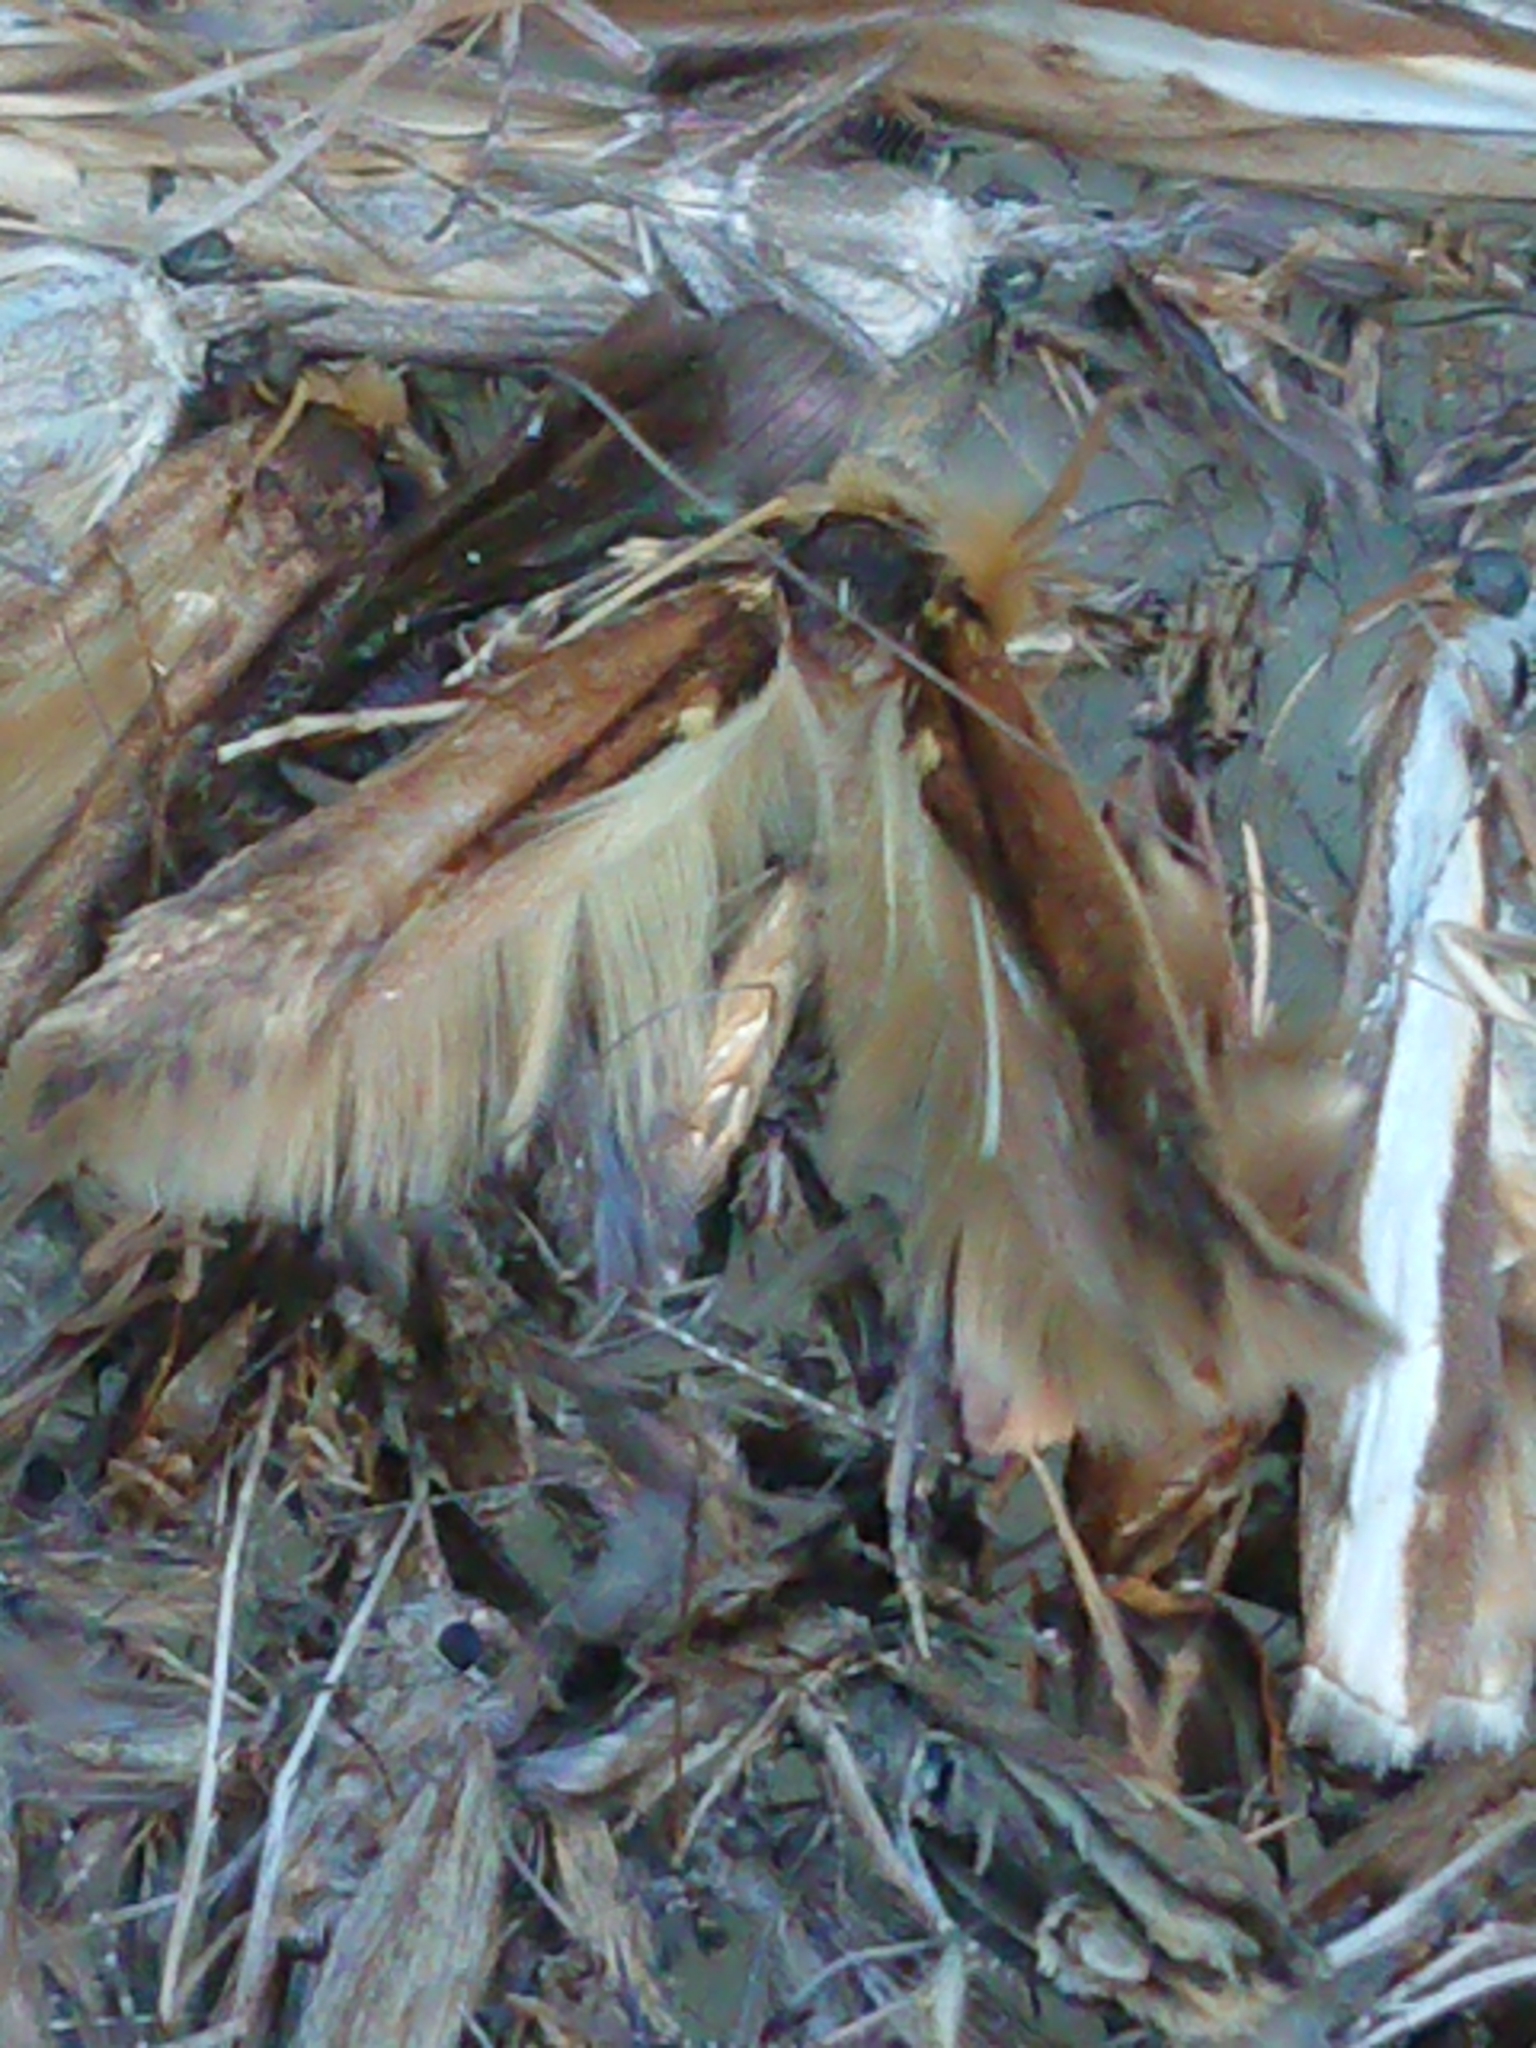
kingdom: Animalia
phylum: Arthropoda
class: Insecta
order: Lepidoptera
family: Tineidae
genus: Opogona
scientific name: Opogona omoscopa
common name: Moth
